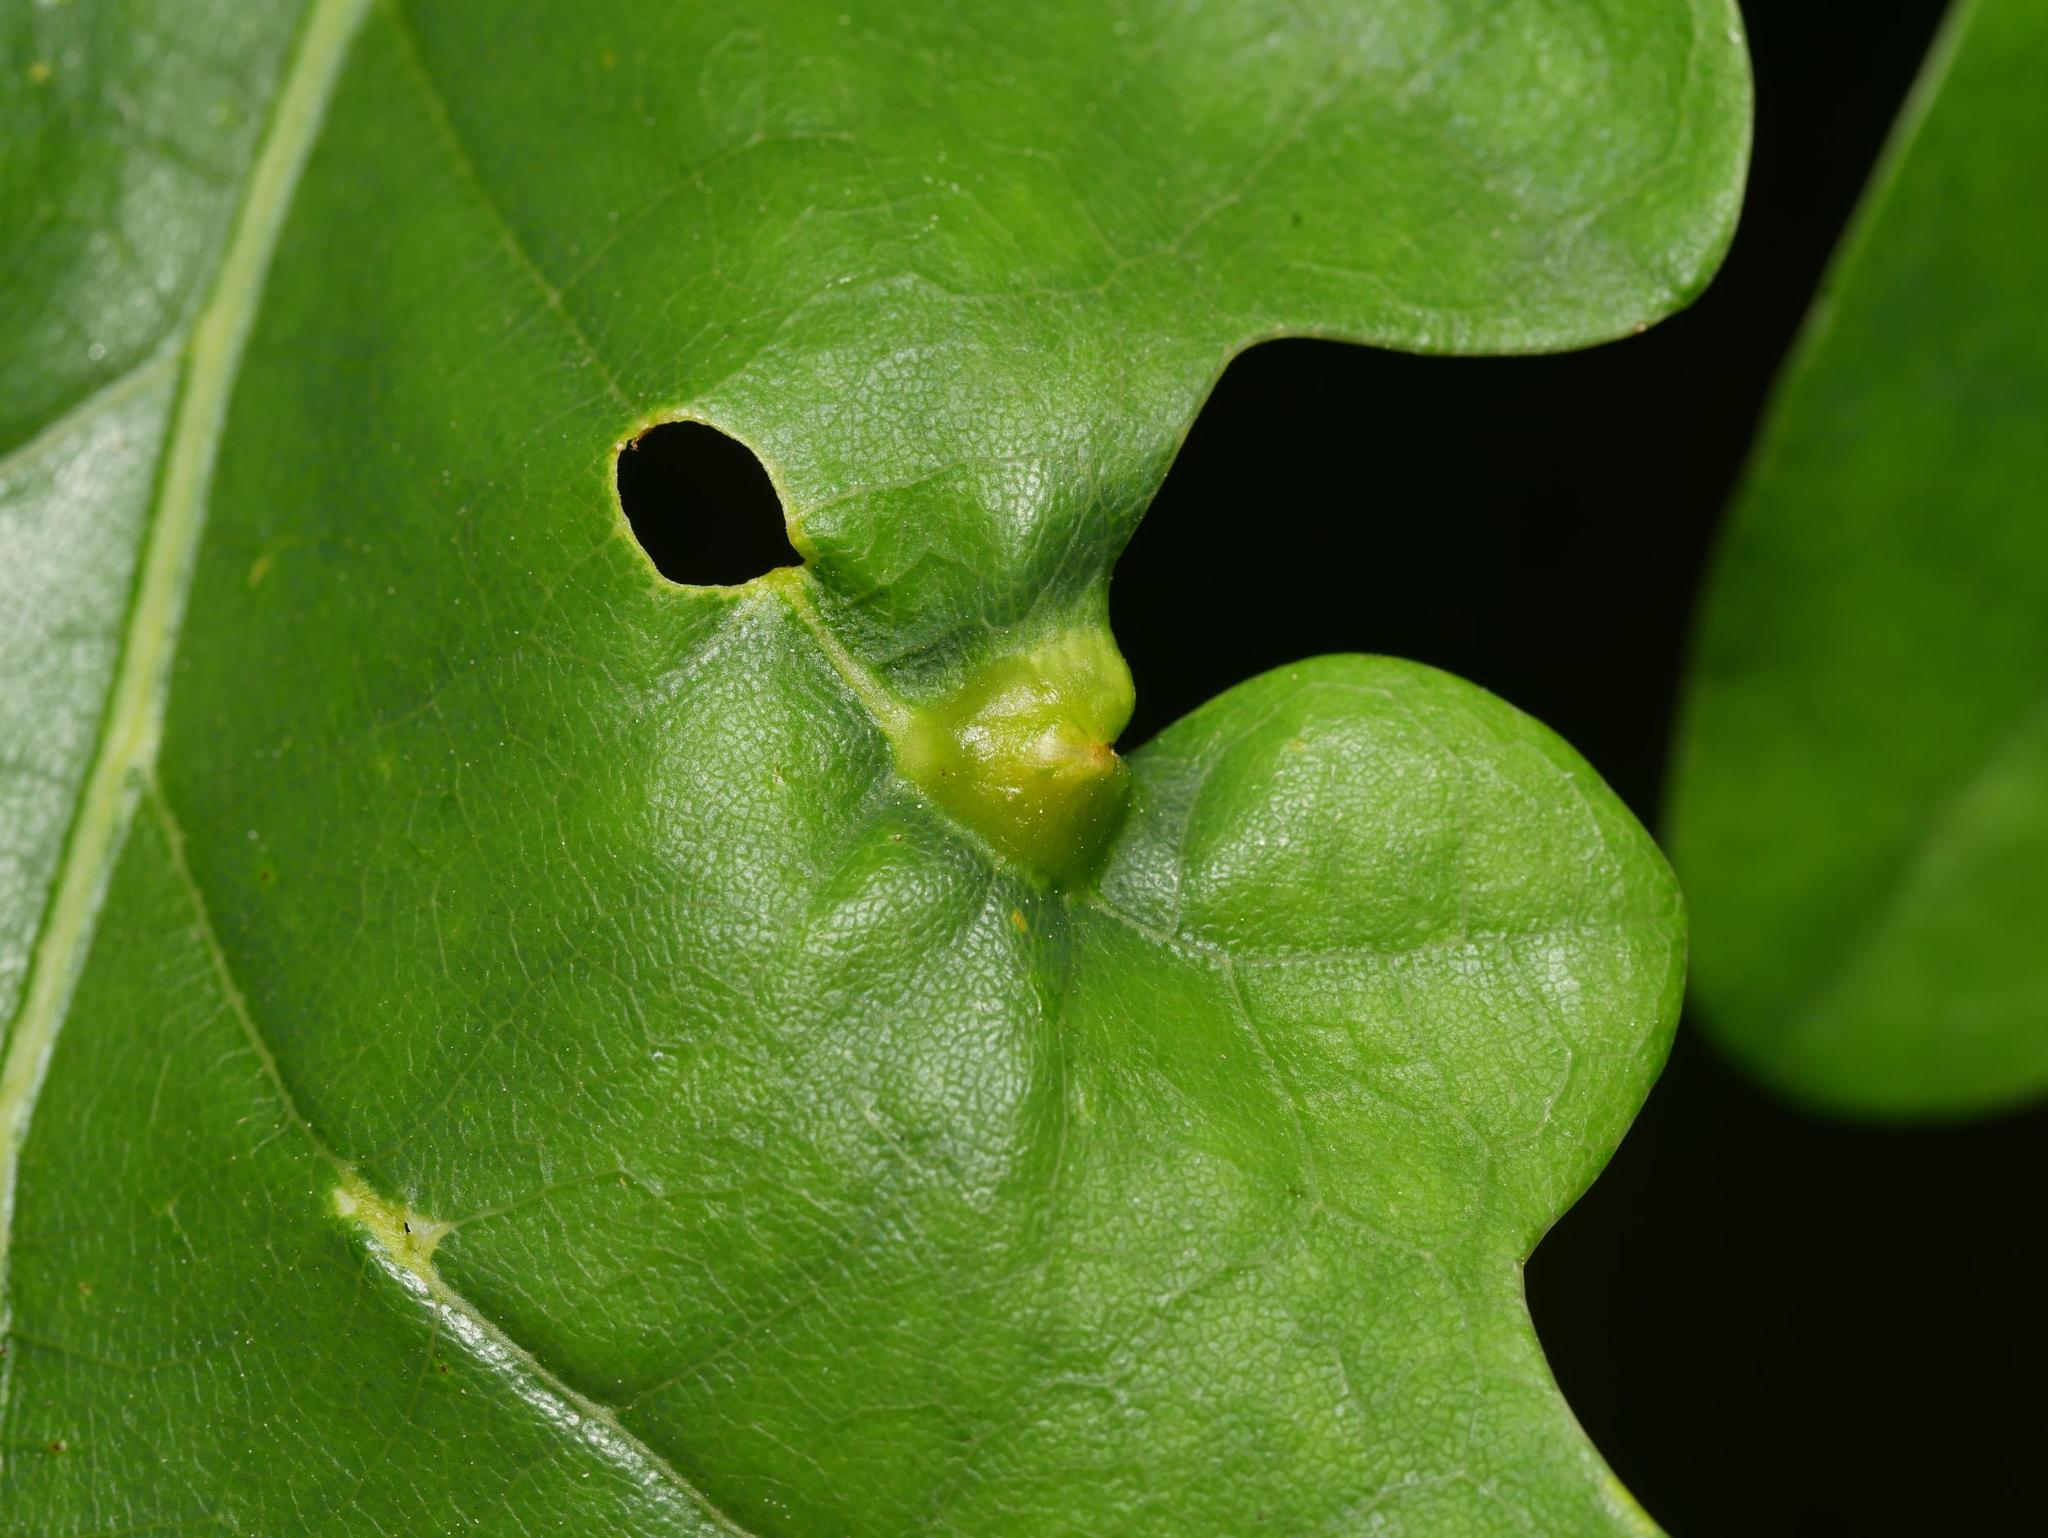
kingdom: Animalia
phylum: Arthropoda
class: Insecta
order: Hymenoptera
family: Cynipidae
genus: Andricus
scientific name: Andricus curvator
